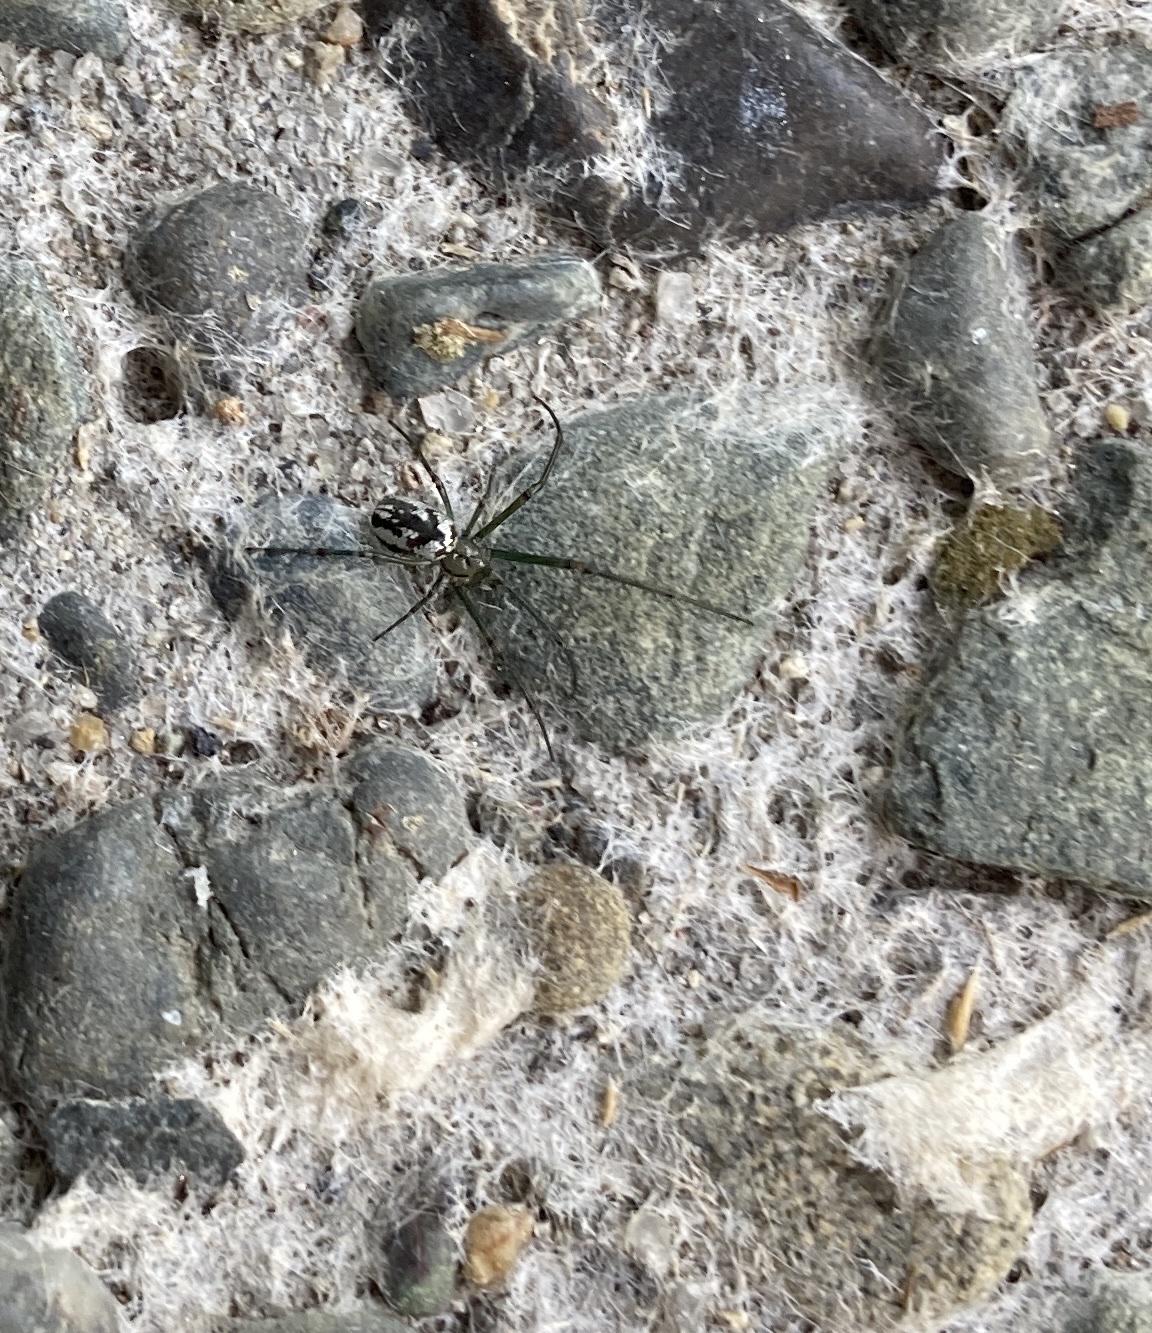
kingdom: Animalia
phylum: Arthropoda
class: Arachnida
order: Araneae
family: Tetragnathidae
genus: Leucauge
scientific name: Leucauge dromedaria
